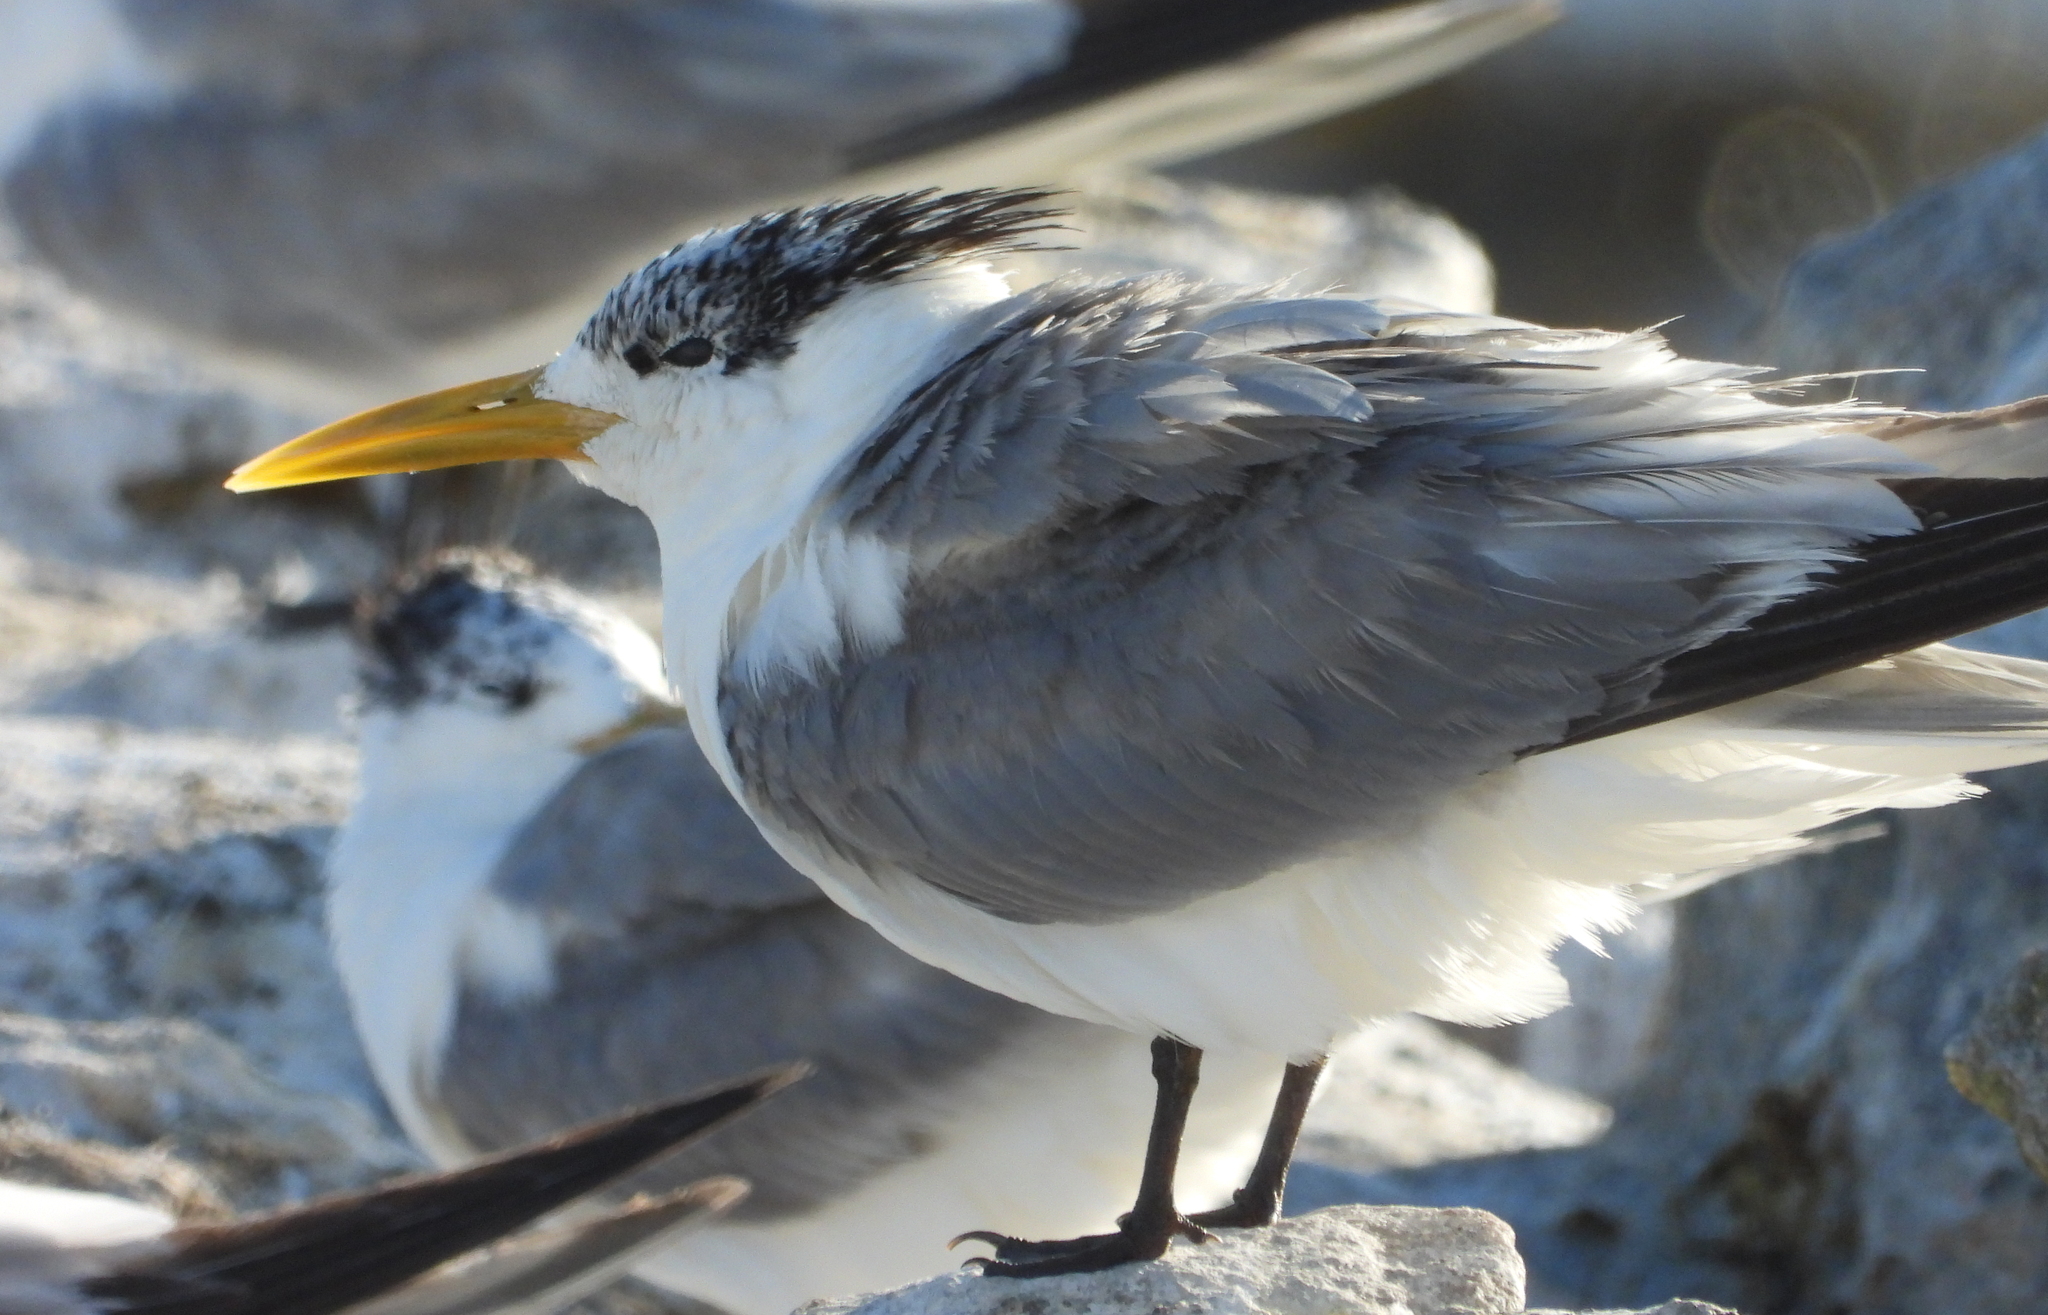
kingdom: Animalia
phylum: Chordata
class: Aves
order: Charadriiformes
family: Laridae
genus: Thalasseus
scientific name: Thalasseus bergii
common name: Greater crested tern
